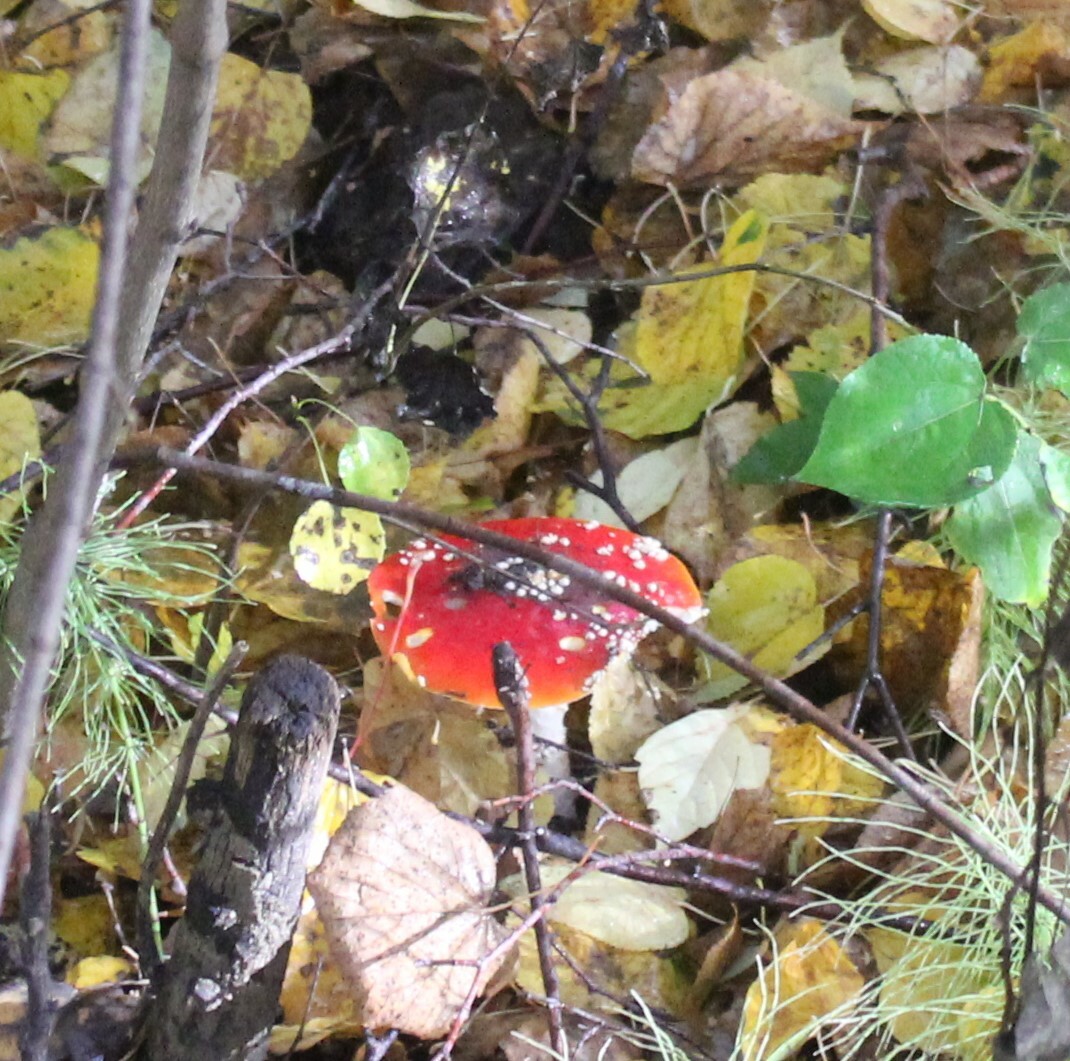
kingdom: Fungi
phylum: Basidiomycota
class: Agaricomycetes
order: Agaricales
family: Amanitaceae
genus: Amanita
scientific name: Amanita muscaria
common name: Fly agaric
